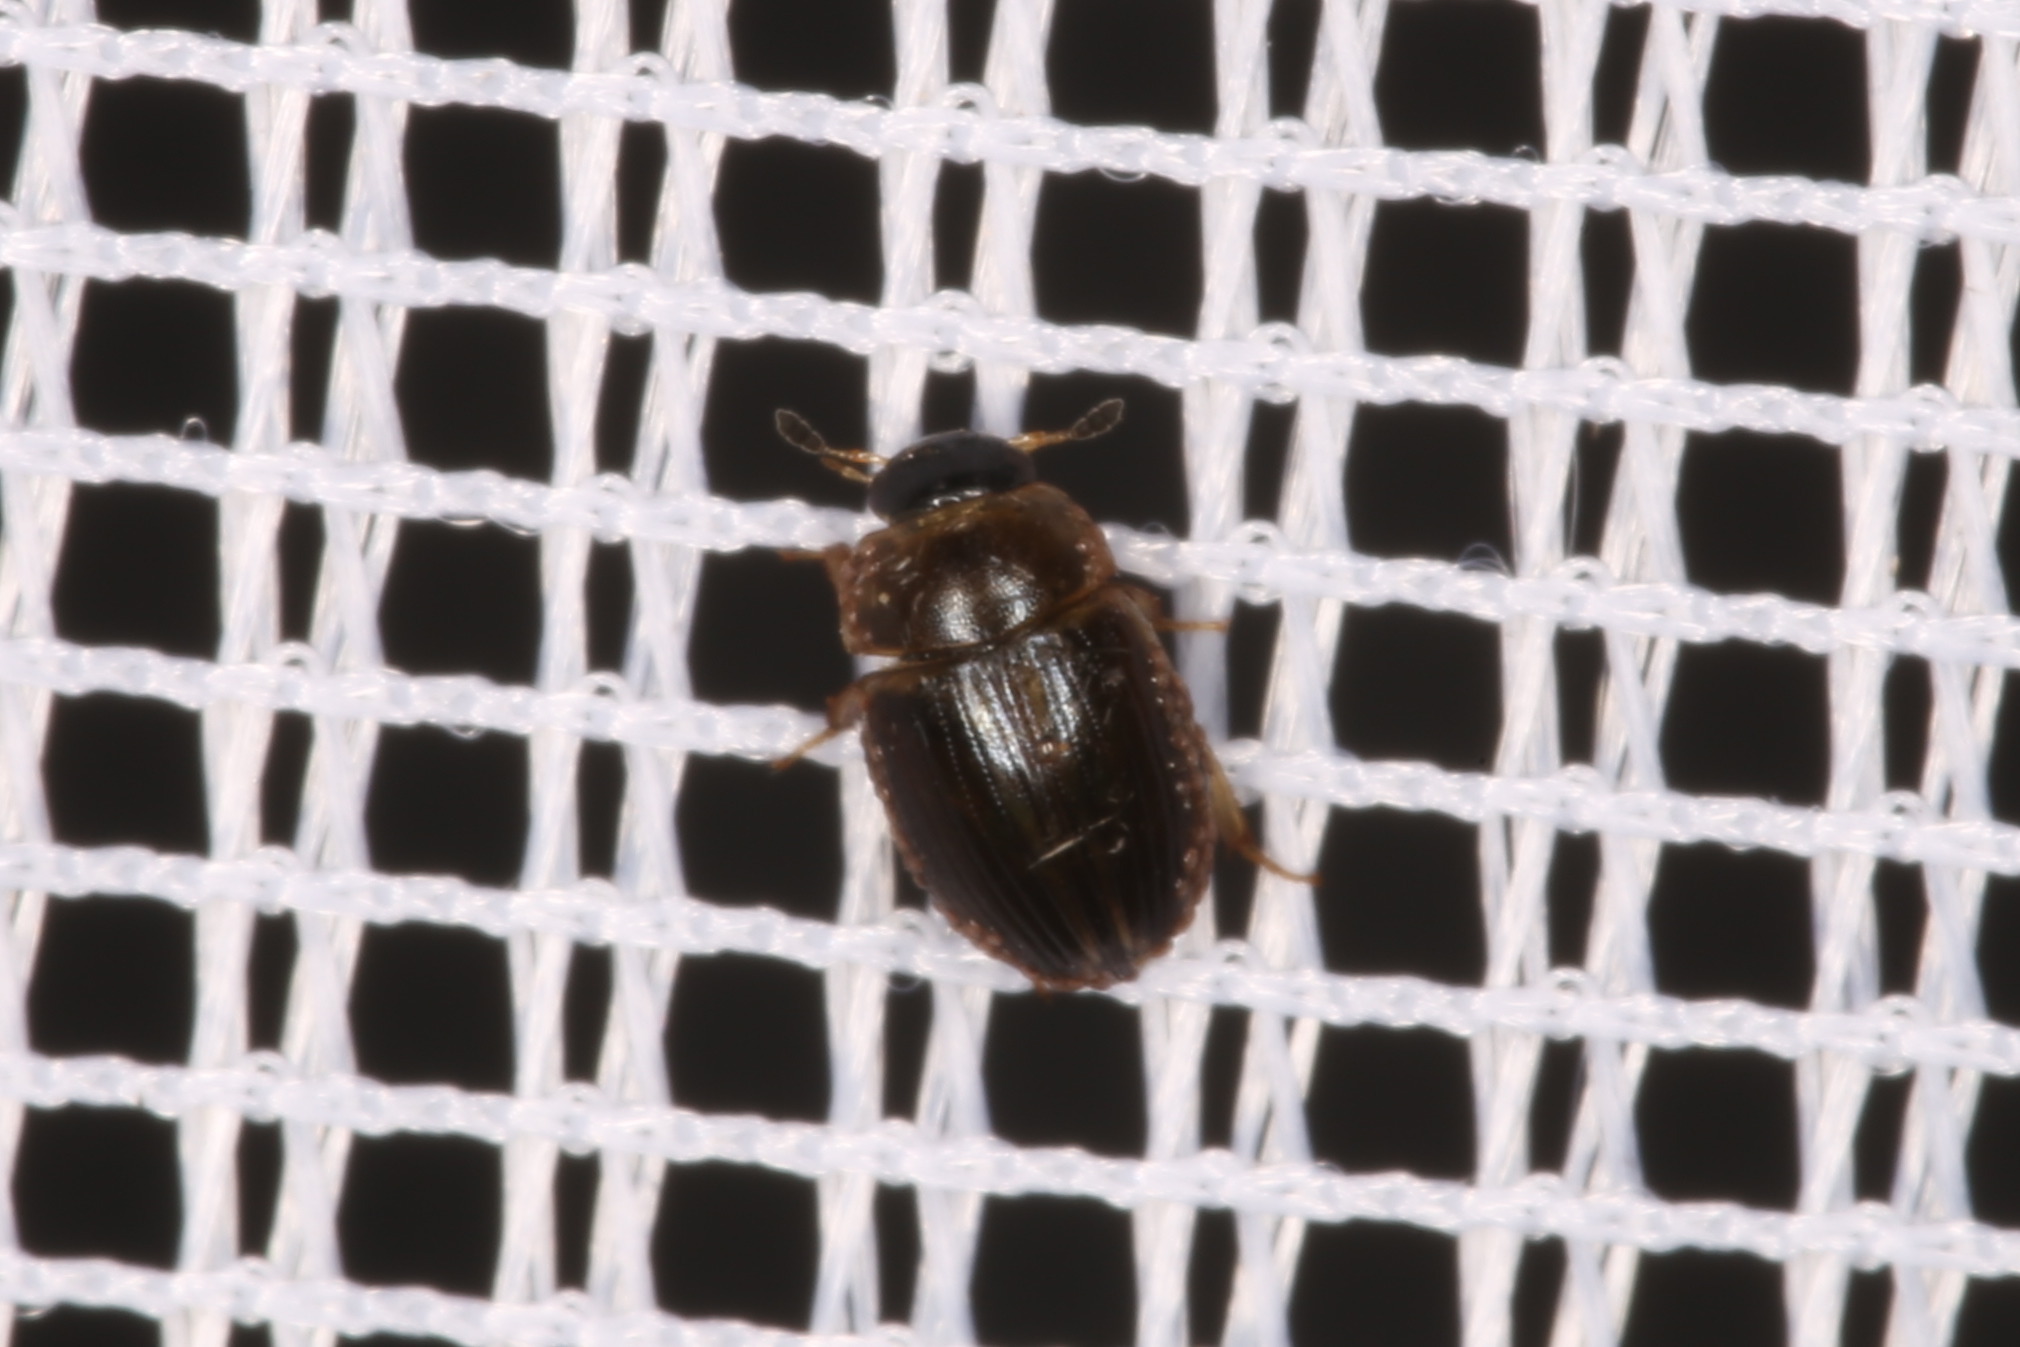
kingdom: Animalia
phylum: Arthropoda
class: Insecta
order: Coleoptera
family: Hydrophilidae
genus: Cercyon
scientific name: Cercyon laminatus
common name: Water scavenger beetle
